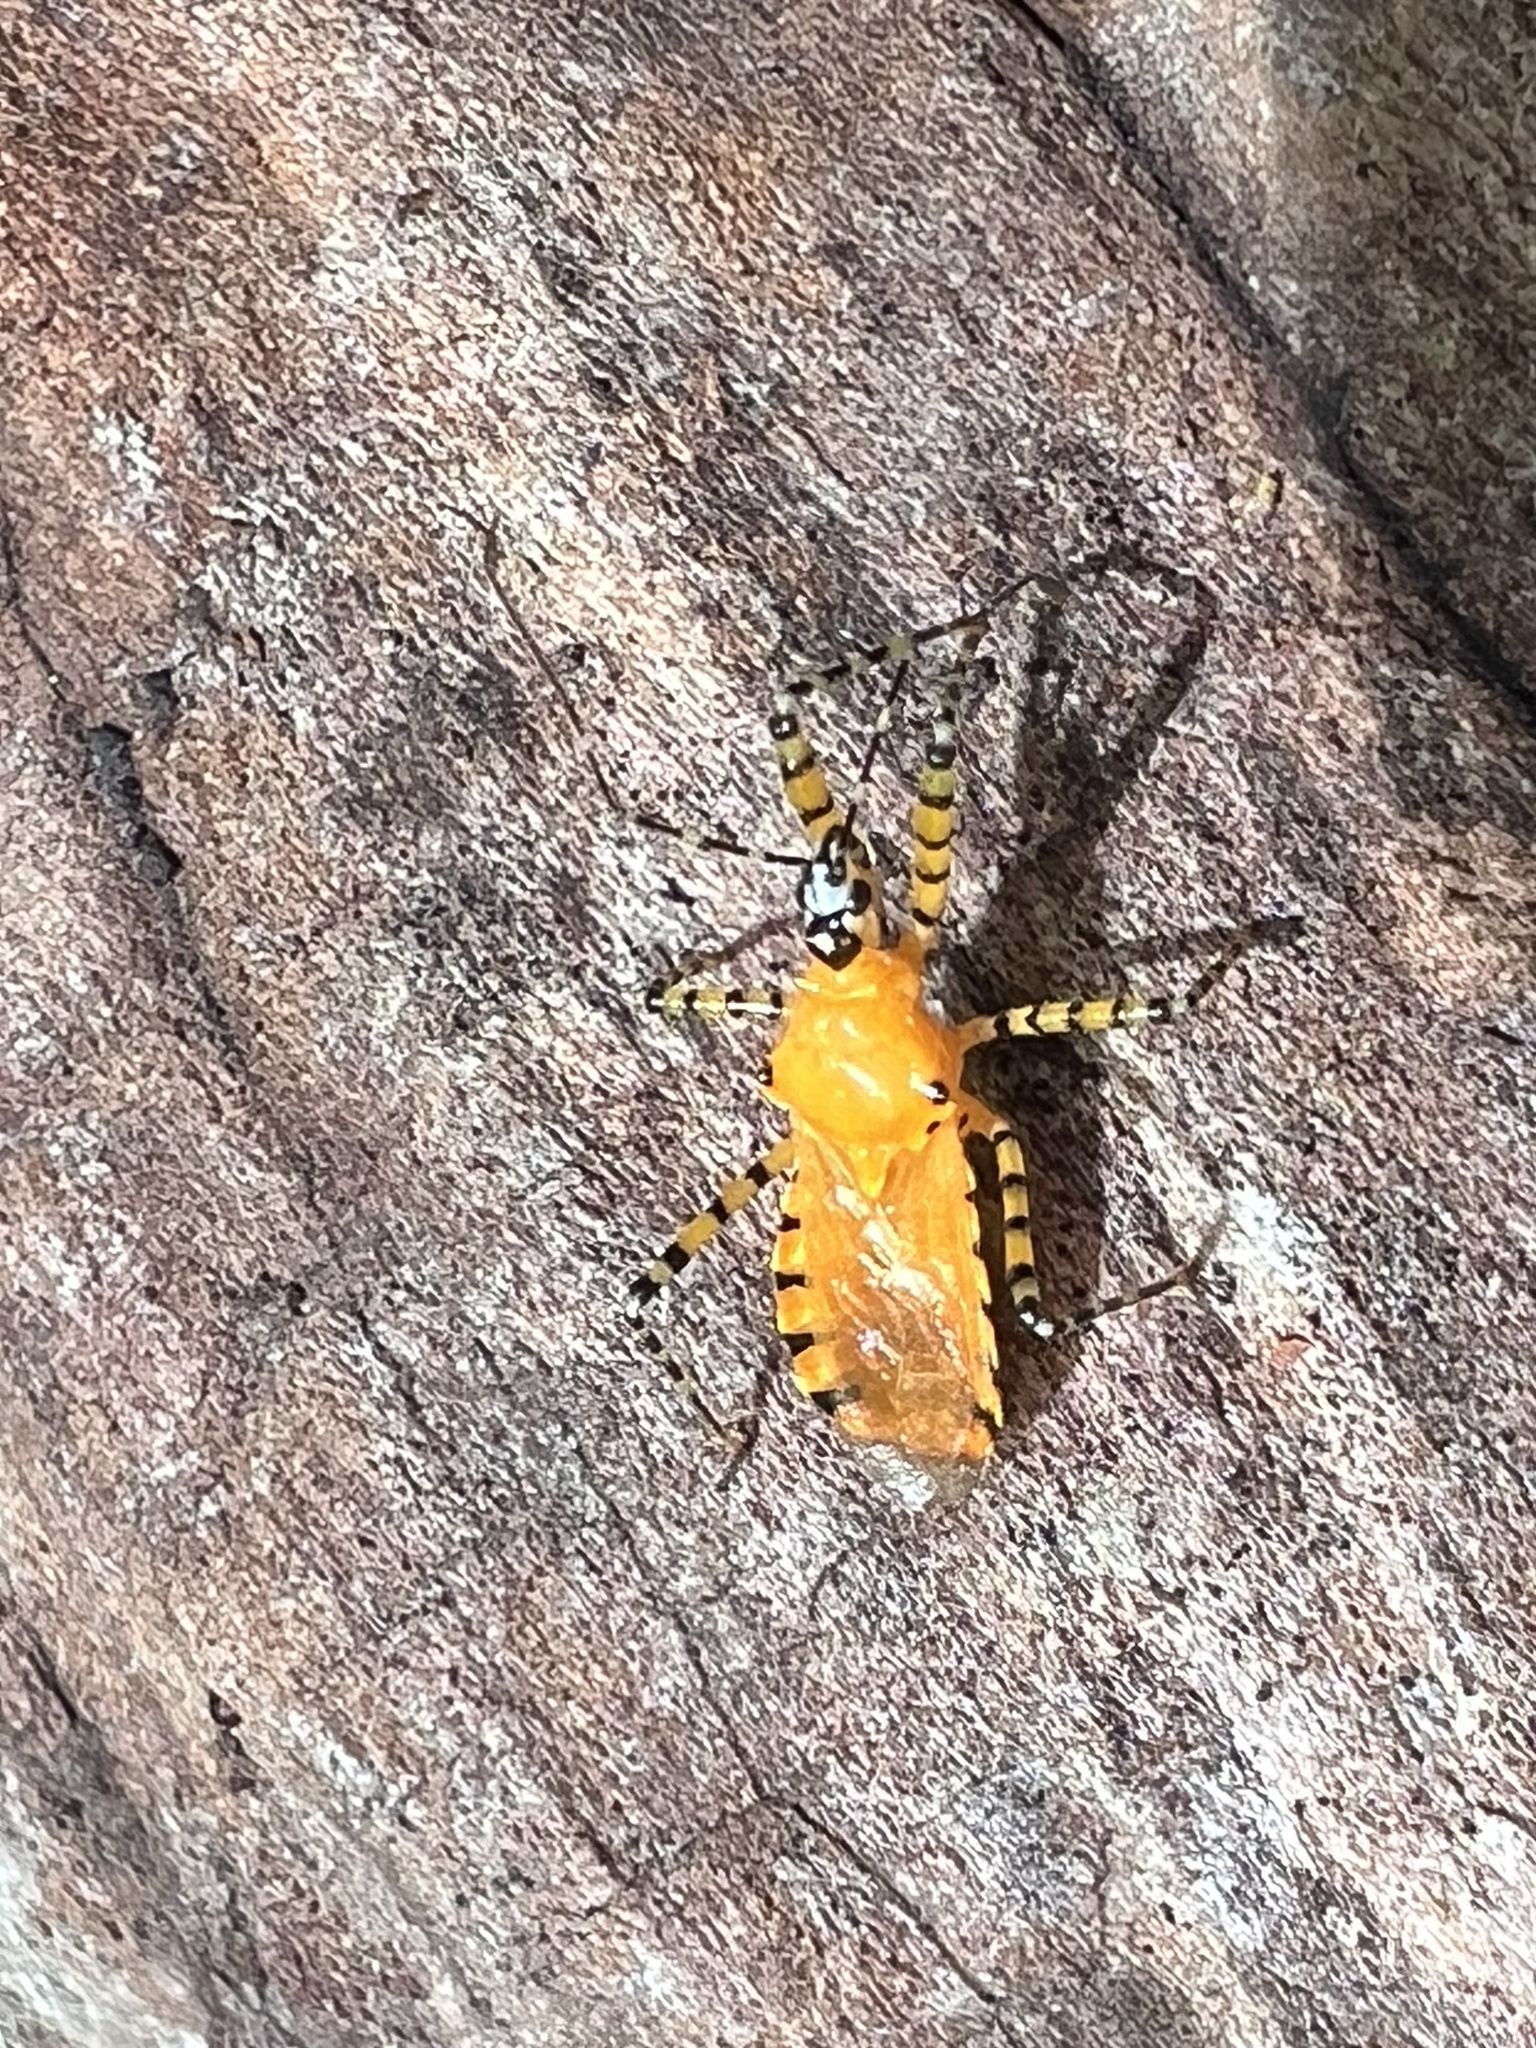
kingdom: Animalia
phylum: Arthropoda
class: Insecta
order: Hemiptera
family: Reduviidae
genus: Pselliopus
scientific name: Pselliopus barberi
